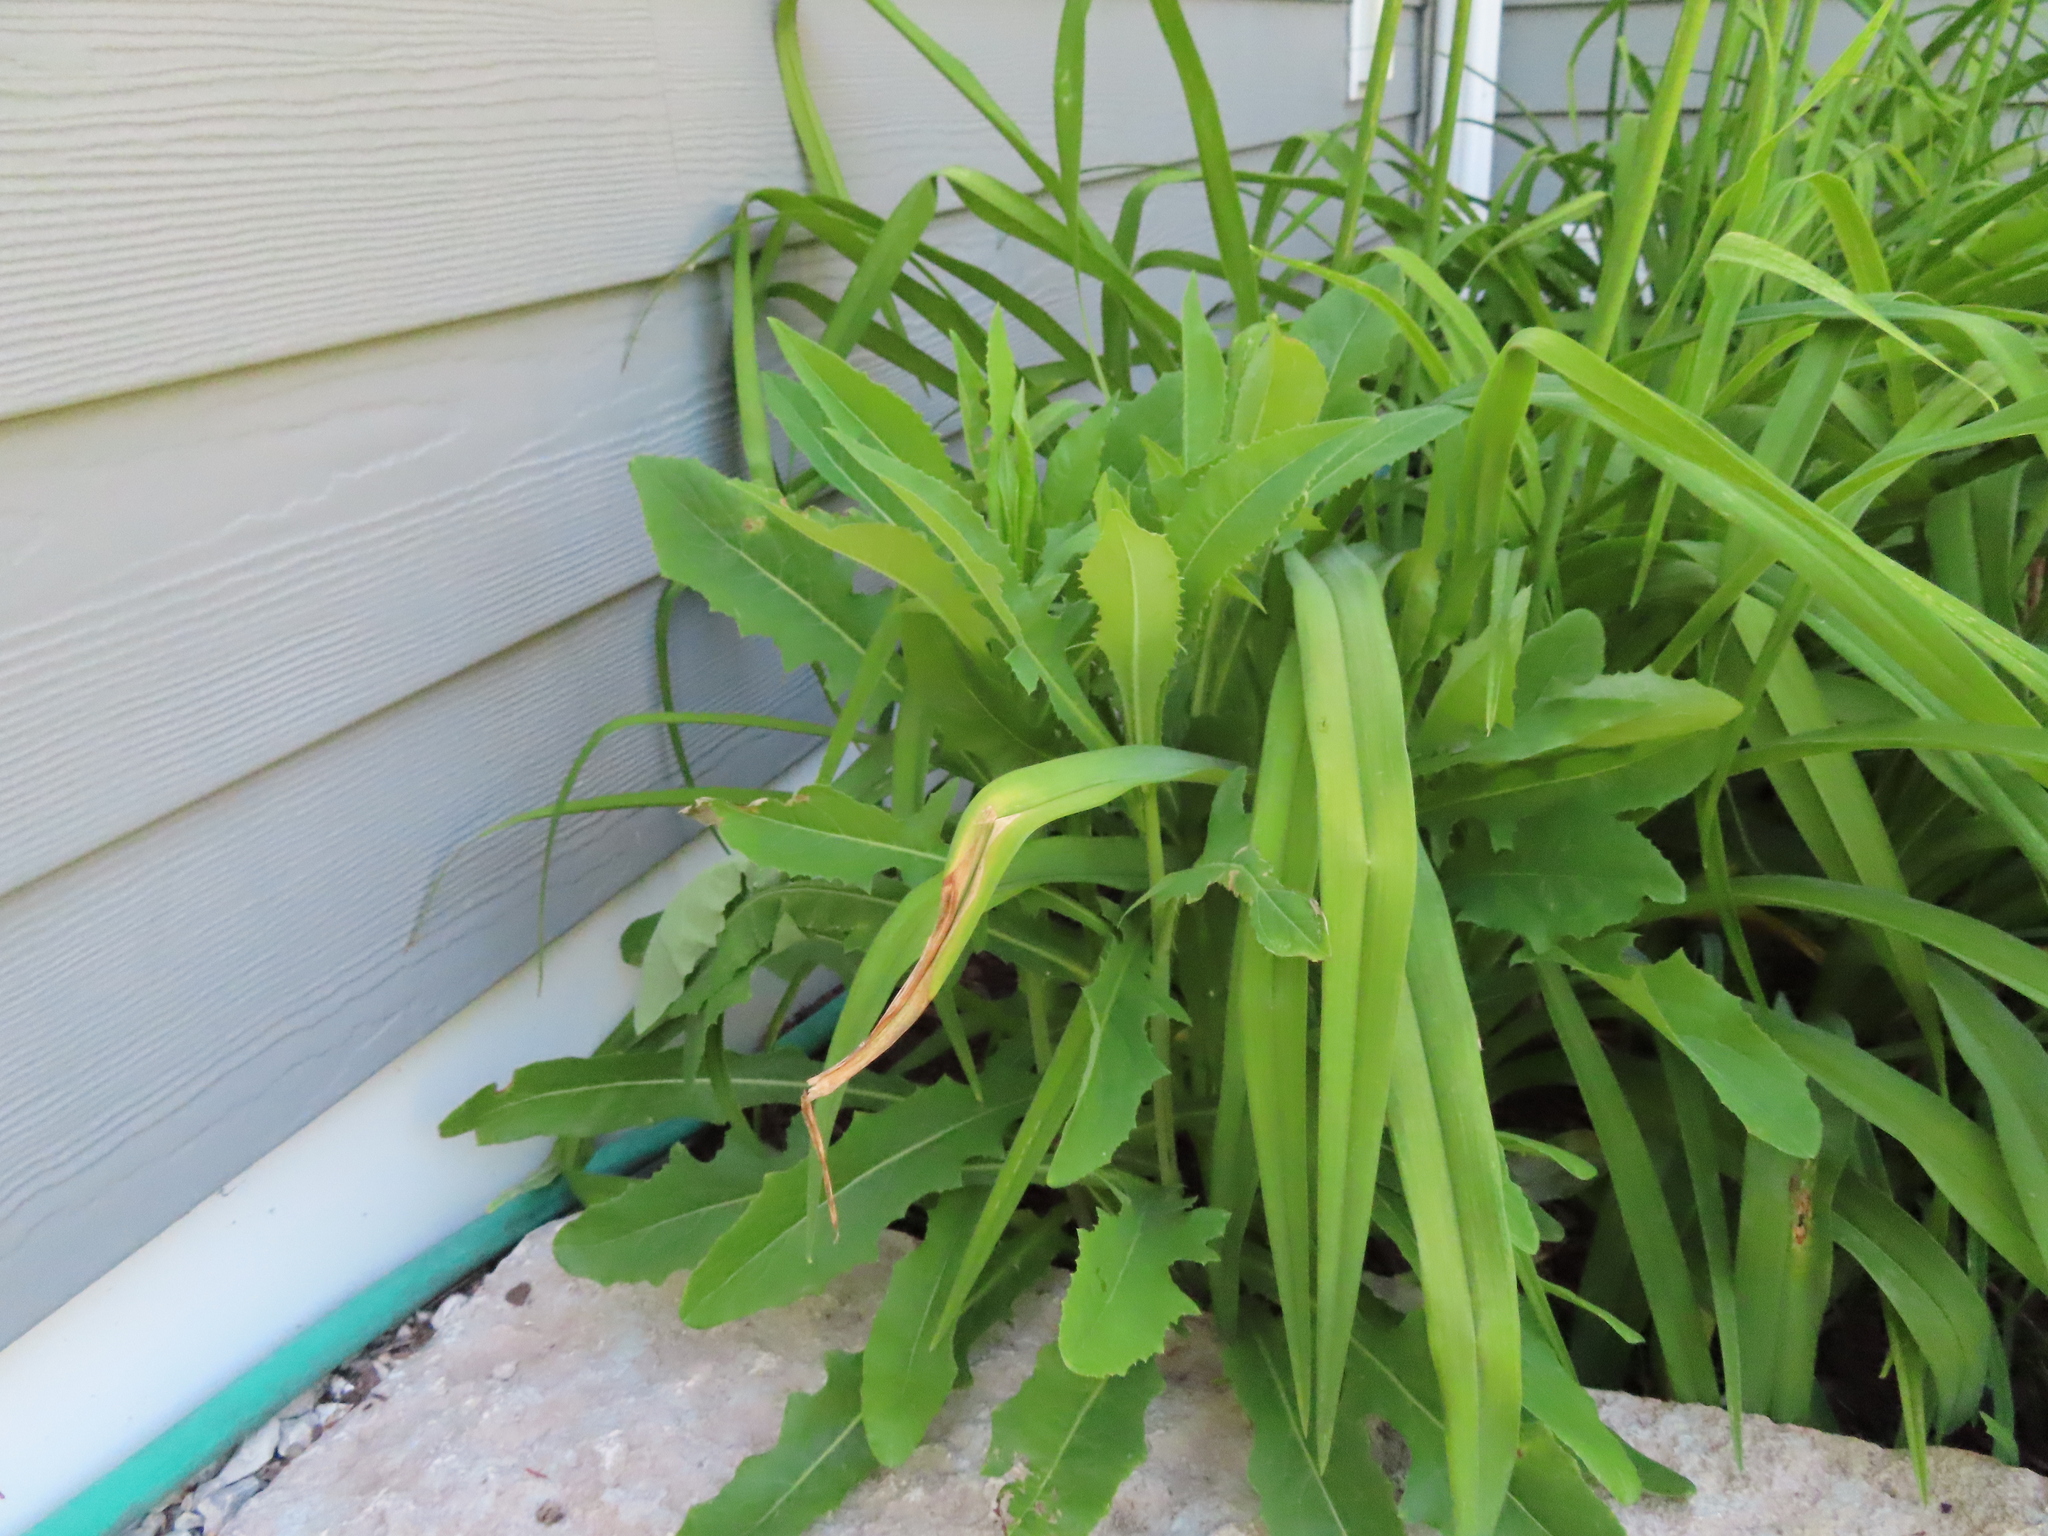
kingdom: Plantae
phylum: Tracheophyta
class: Magnoliopsida
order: Asterales
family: Asteraceae
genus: Lactuca
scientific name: Lactuca serriola
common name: Prickly lettuce
